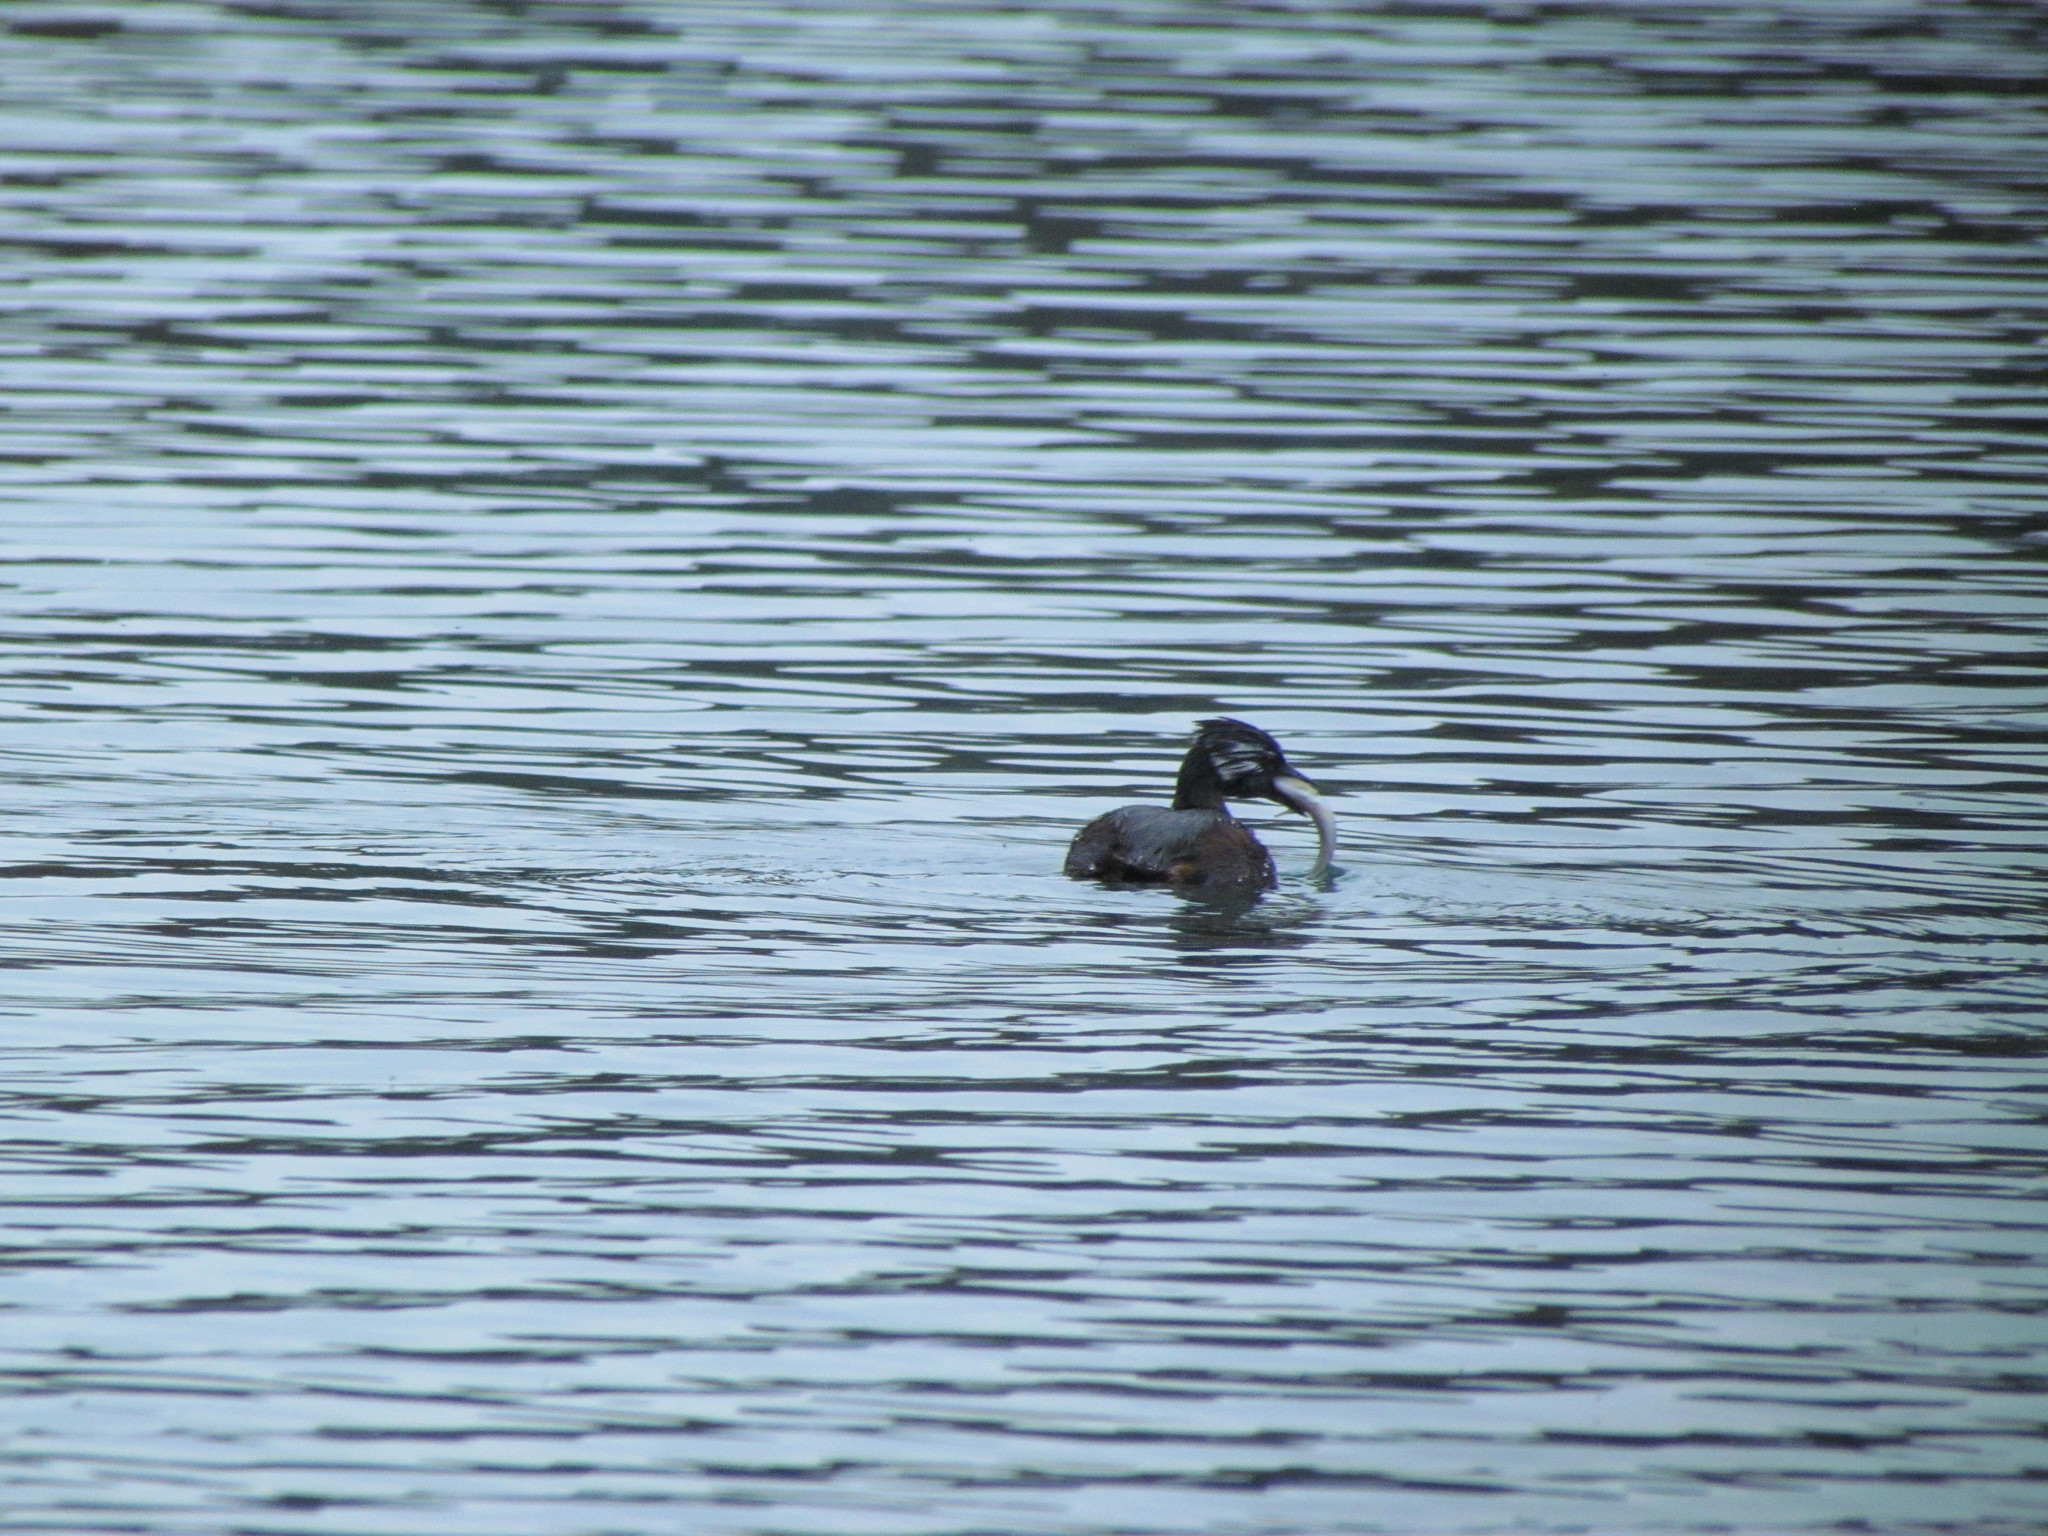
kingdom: Animalia
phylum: Chordata
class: Aves
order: Podicipediformes
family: Podicipedidae
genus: Rollandia
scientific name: Rollandia rolland
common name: White-tufted grebe
